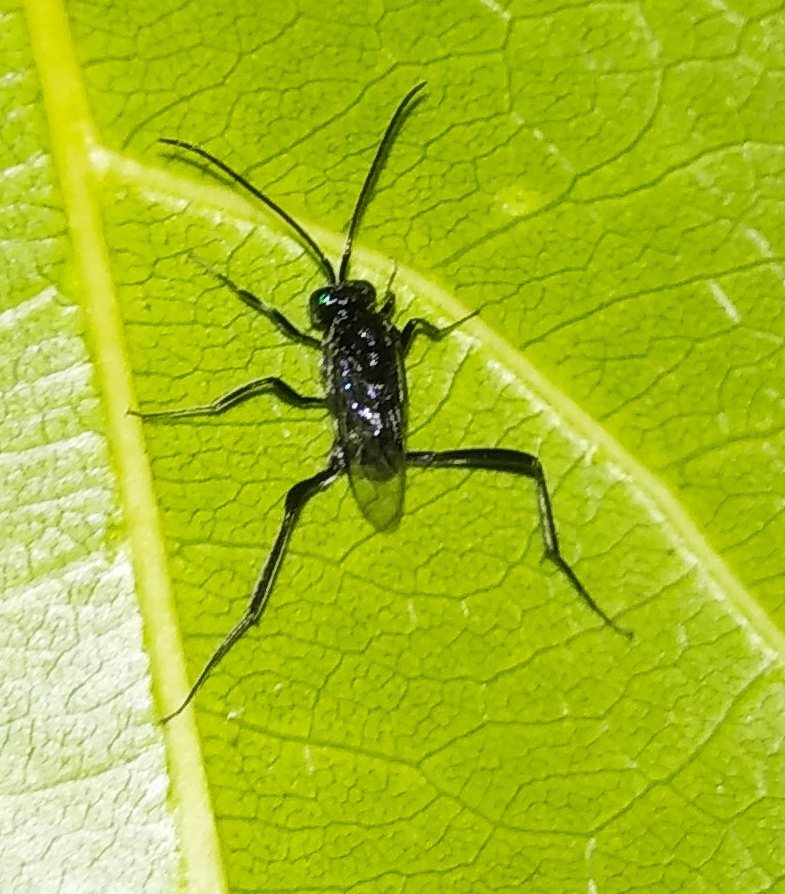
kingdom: Animalia
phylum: Arthropoda
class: Insecta
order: Hymenoptera
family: Evaniidae
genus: Evania
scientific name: Evania appendigaster
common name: Ensign wasp
